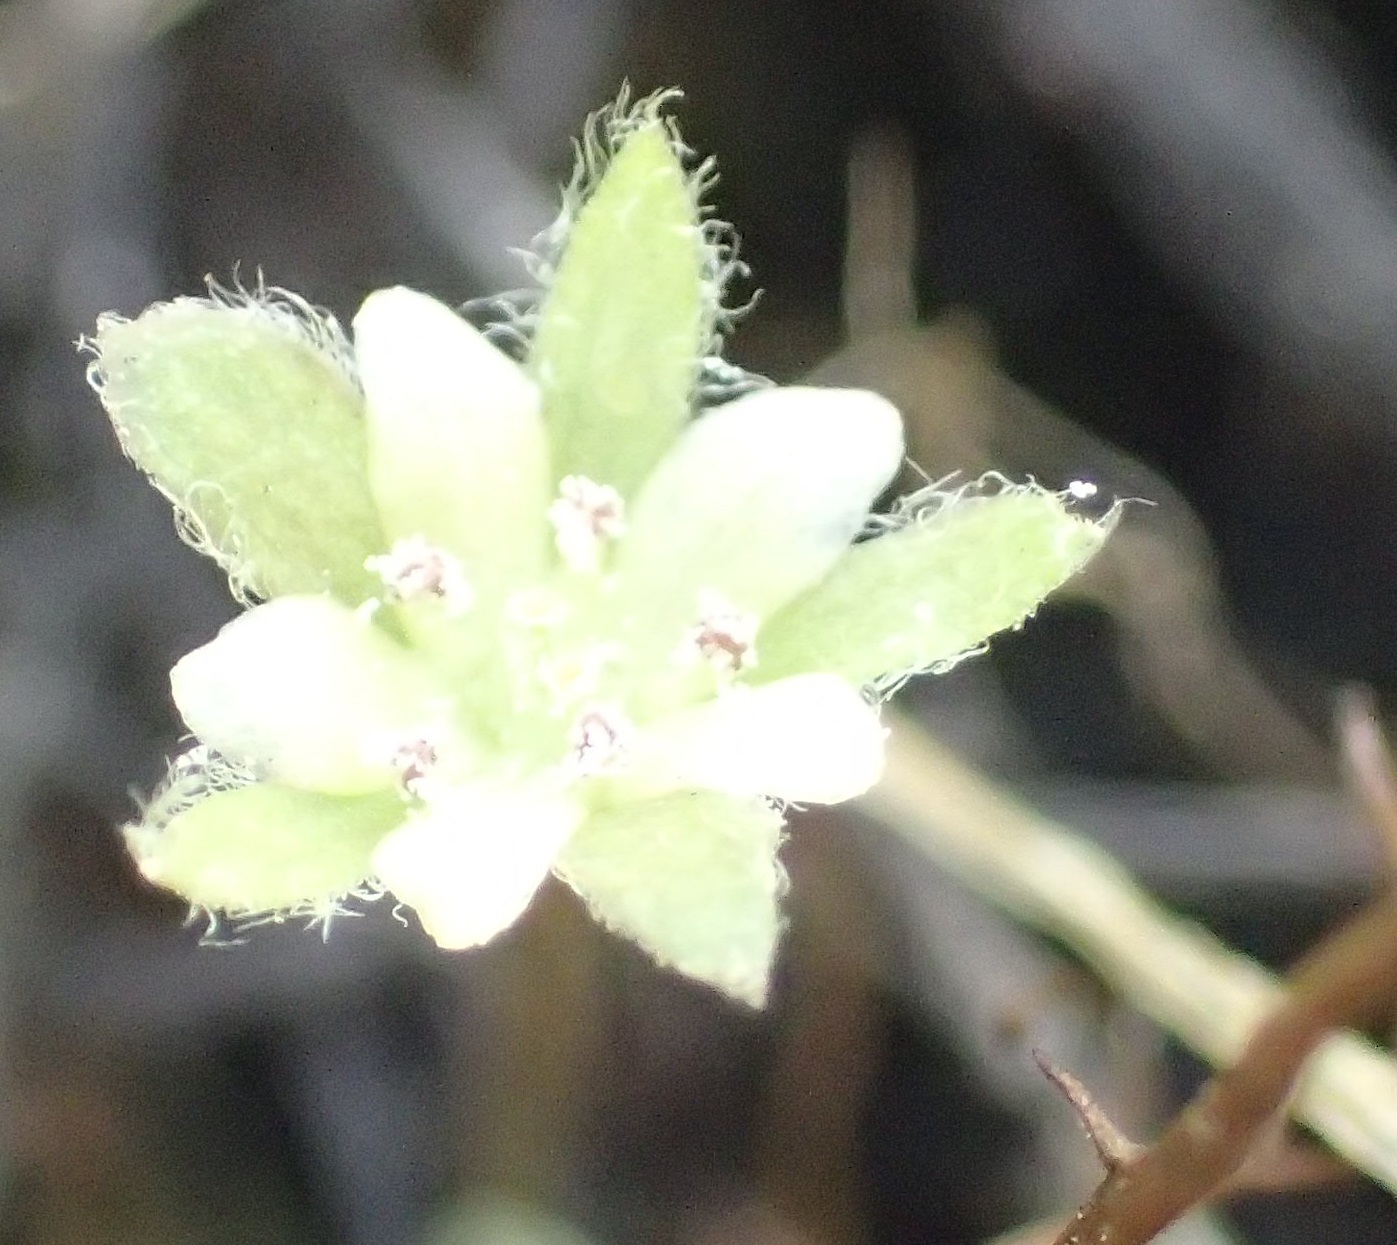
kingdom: Plantae
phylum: Tracheophyta
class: Magnoliopsida
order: Solanales
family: Convolvulaceae
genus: Dichondra
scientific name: Dichondra repens
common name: Kidneyweed
